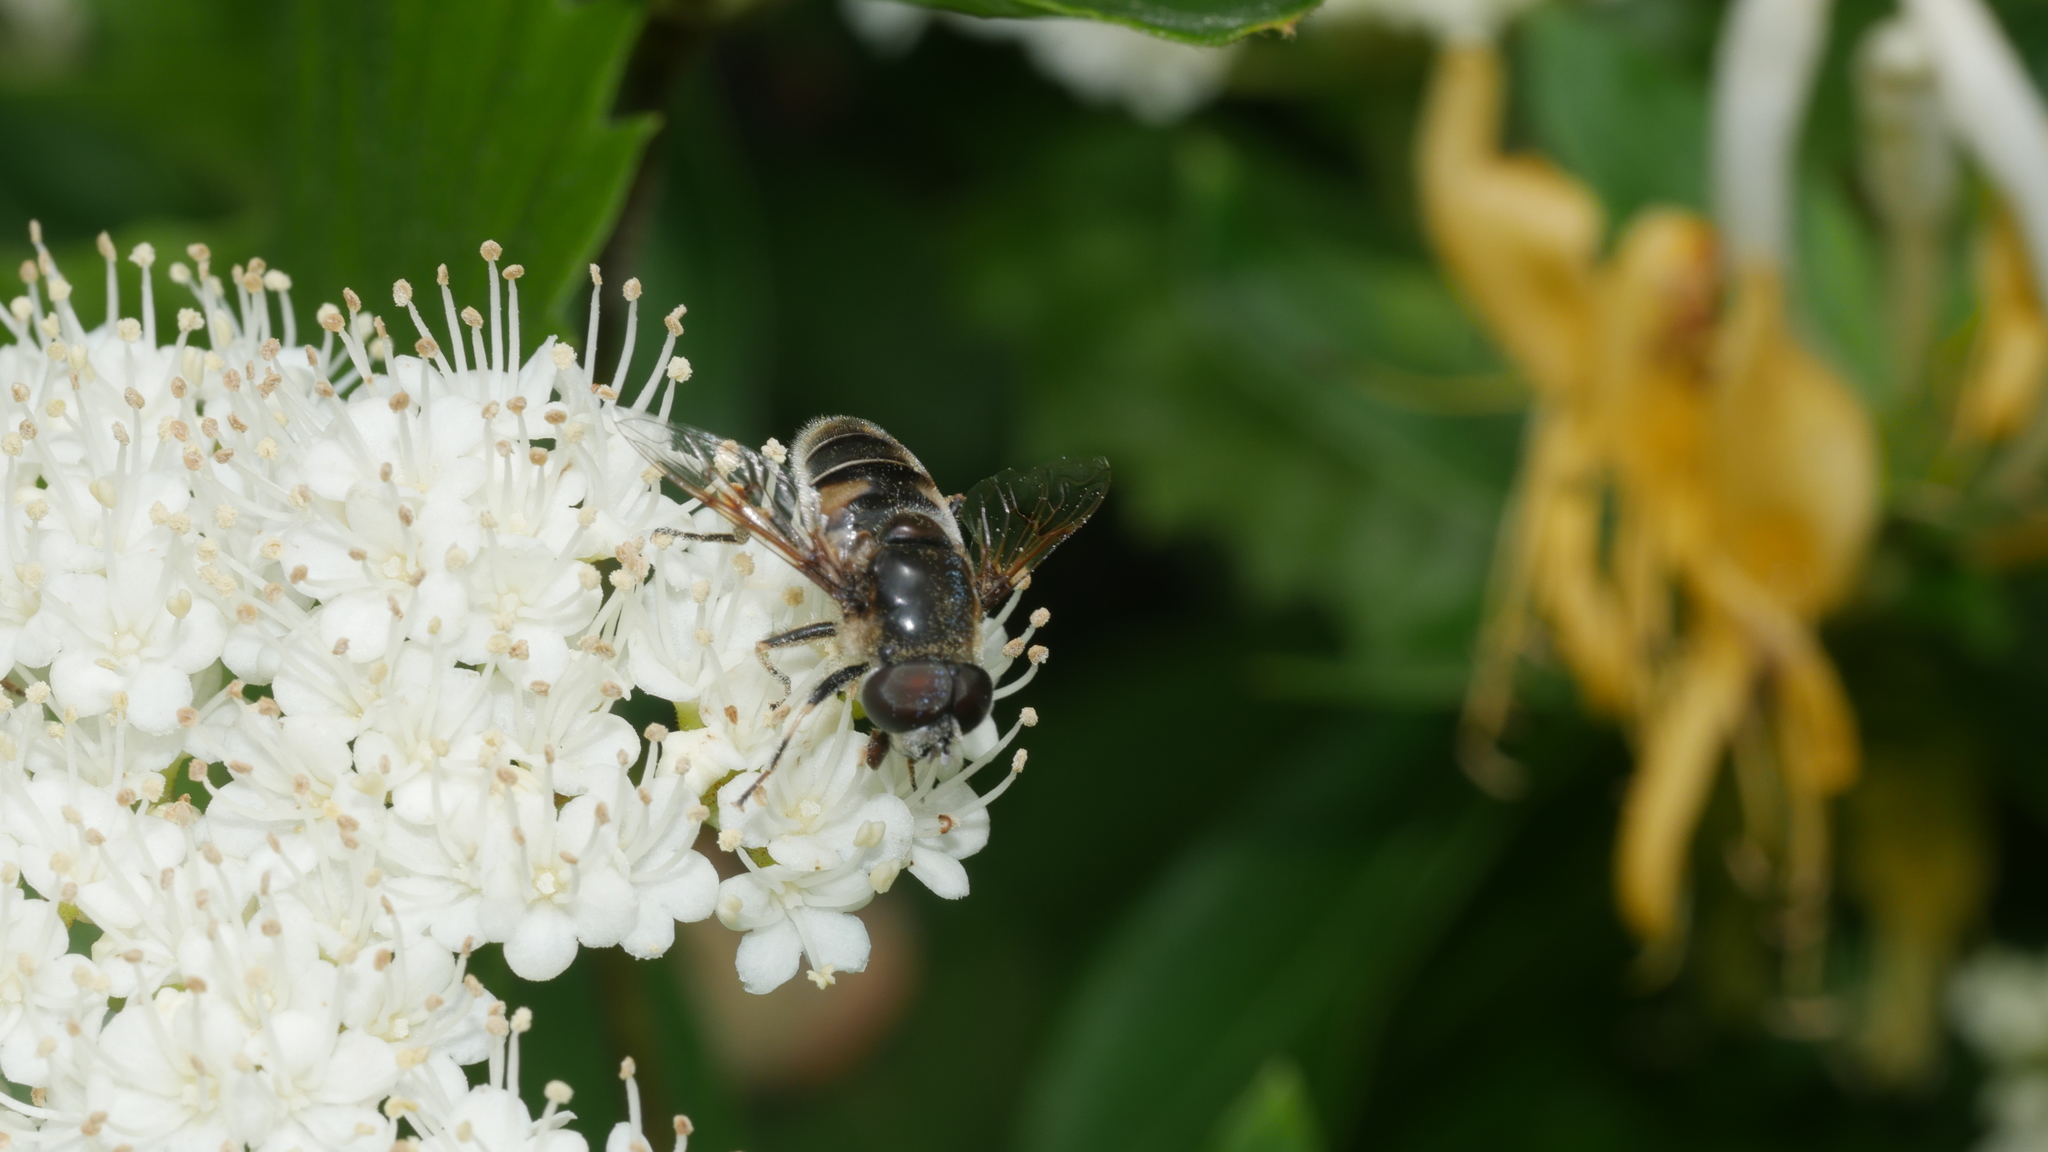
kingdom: Animalia
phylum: Arthropoda
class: Insecta
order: Diptera
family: Syrphidae
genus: Eristalis
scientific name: Eristalis saxorum
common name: Blue-polished drone fly
